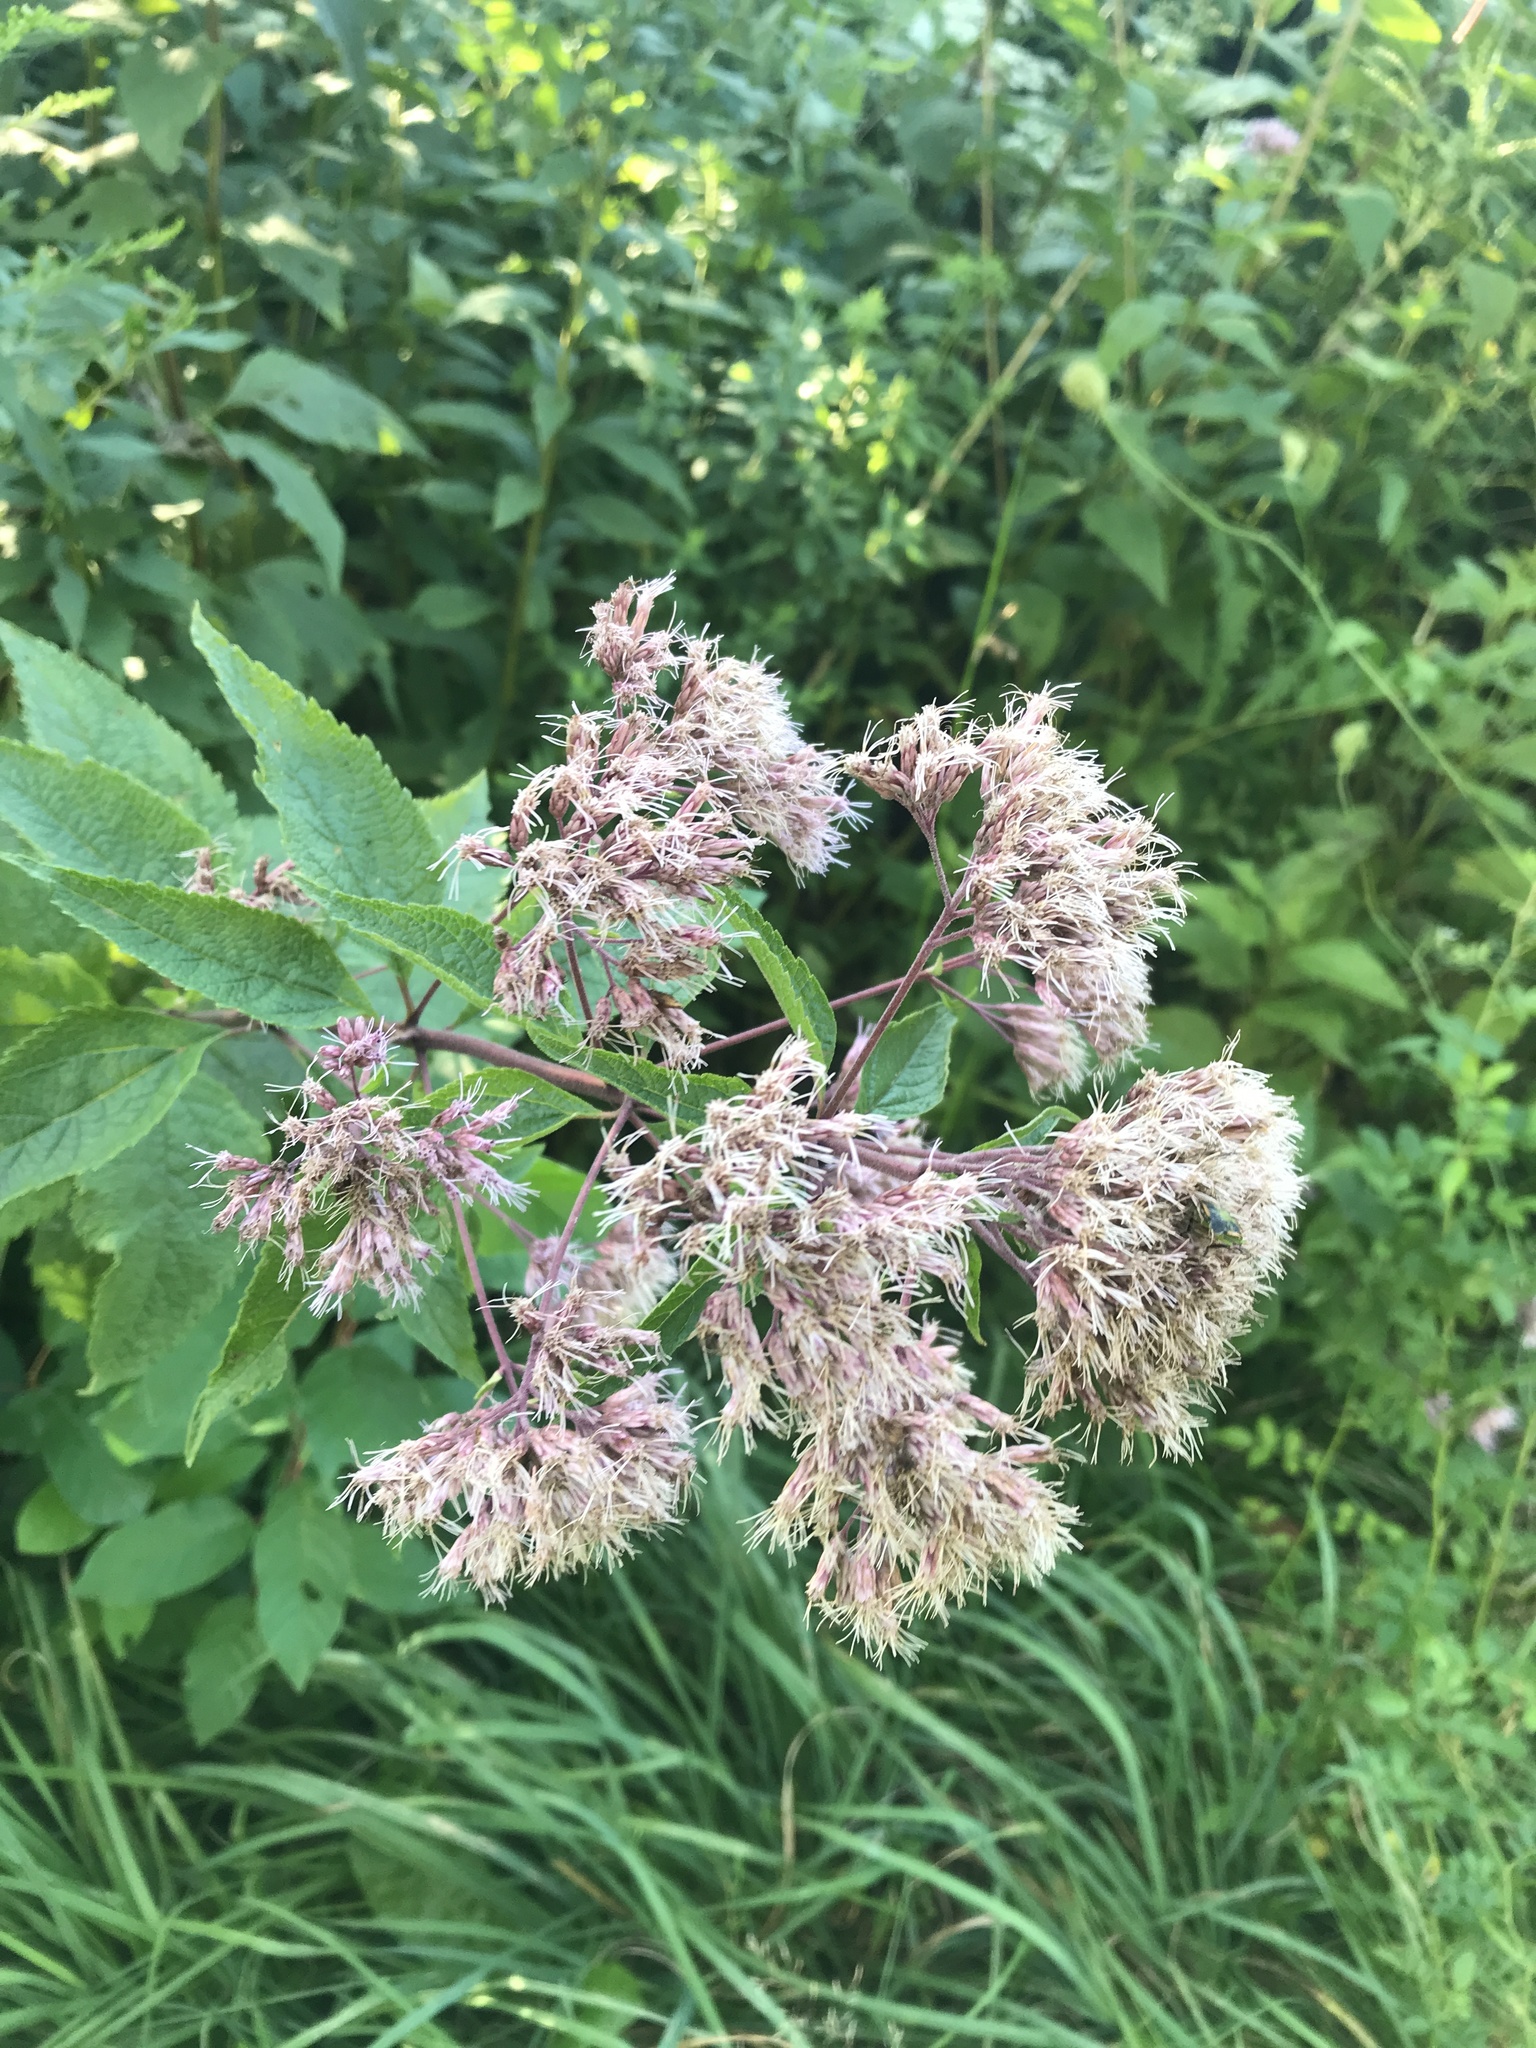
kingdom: Plantae
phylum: Tracheophyta
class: Magnoliopsida
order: Asterales
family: Asteraceae
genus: Eutrochium
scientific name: Eutrochium dubium
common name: Coastal plain joe pye weed
